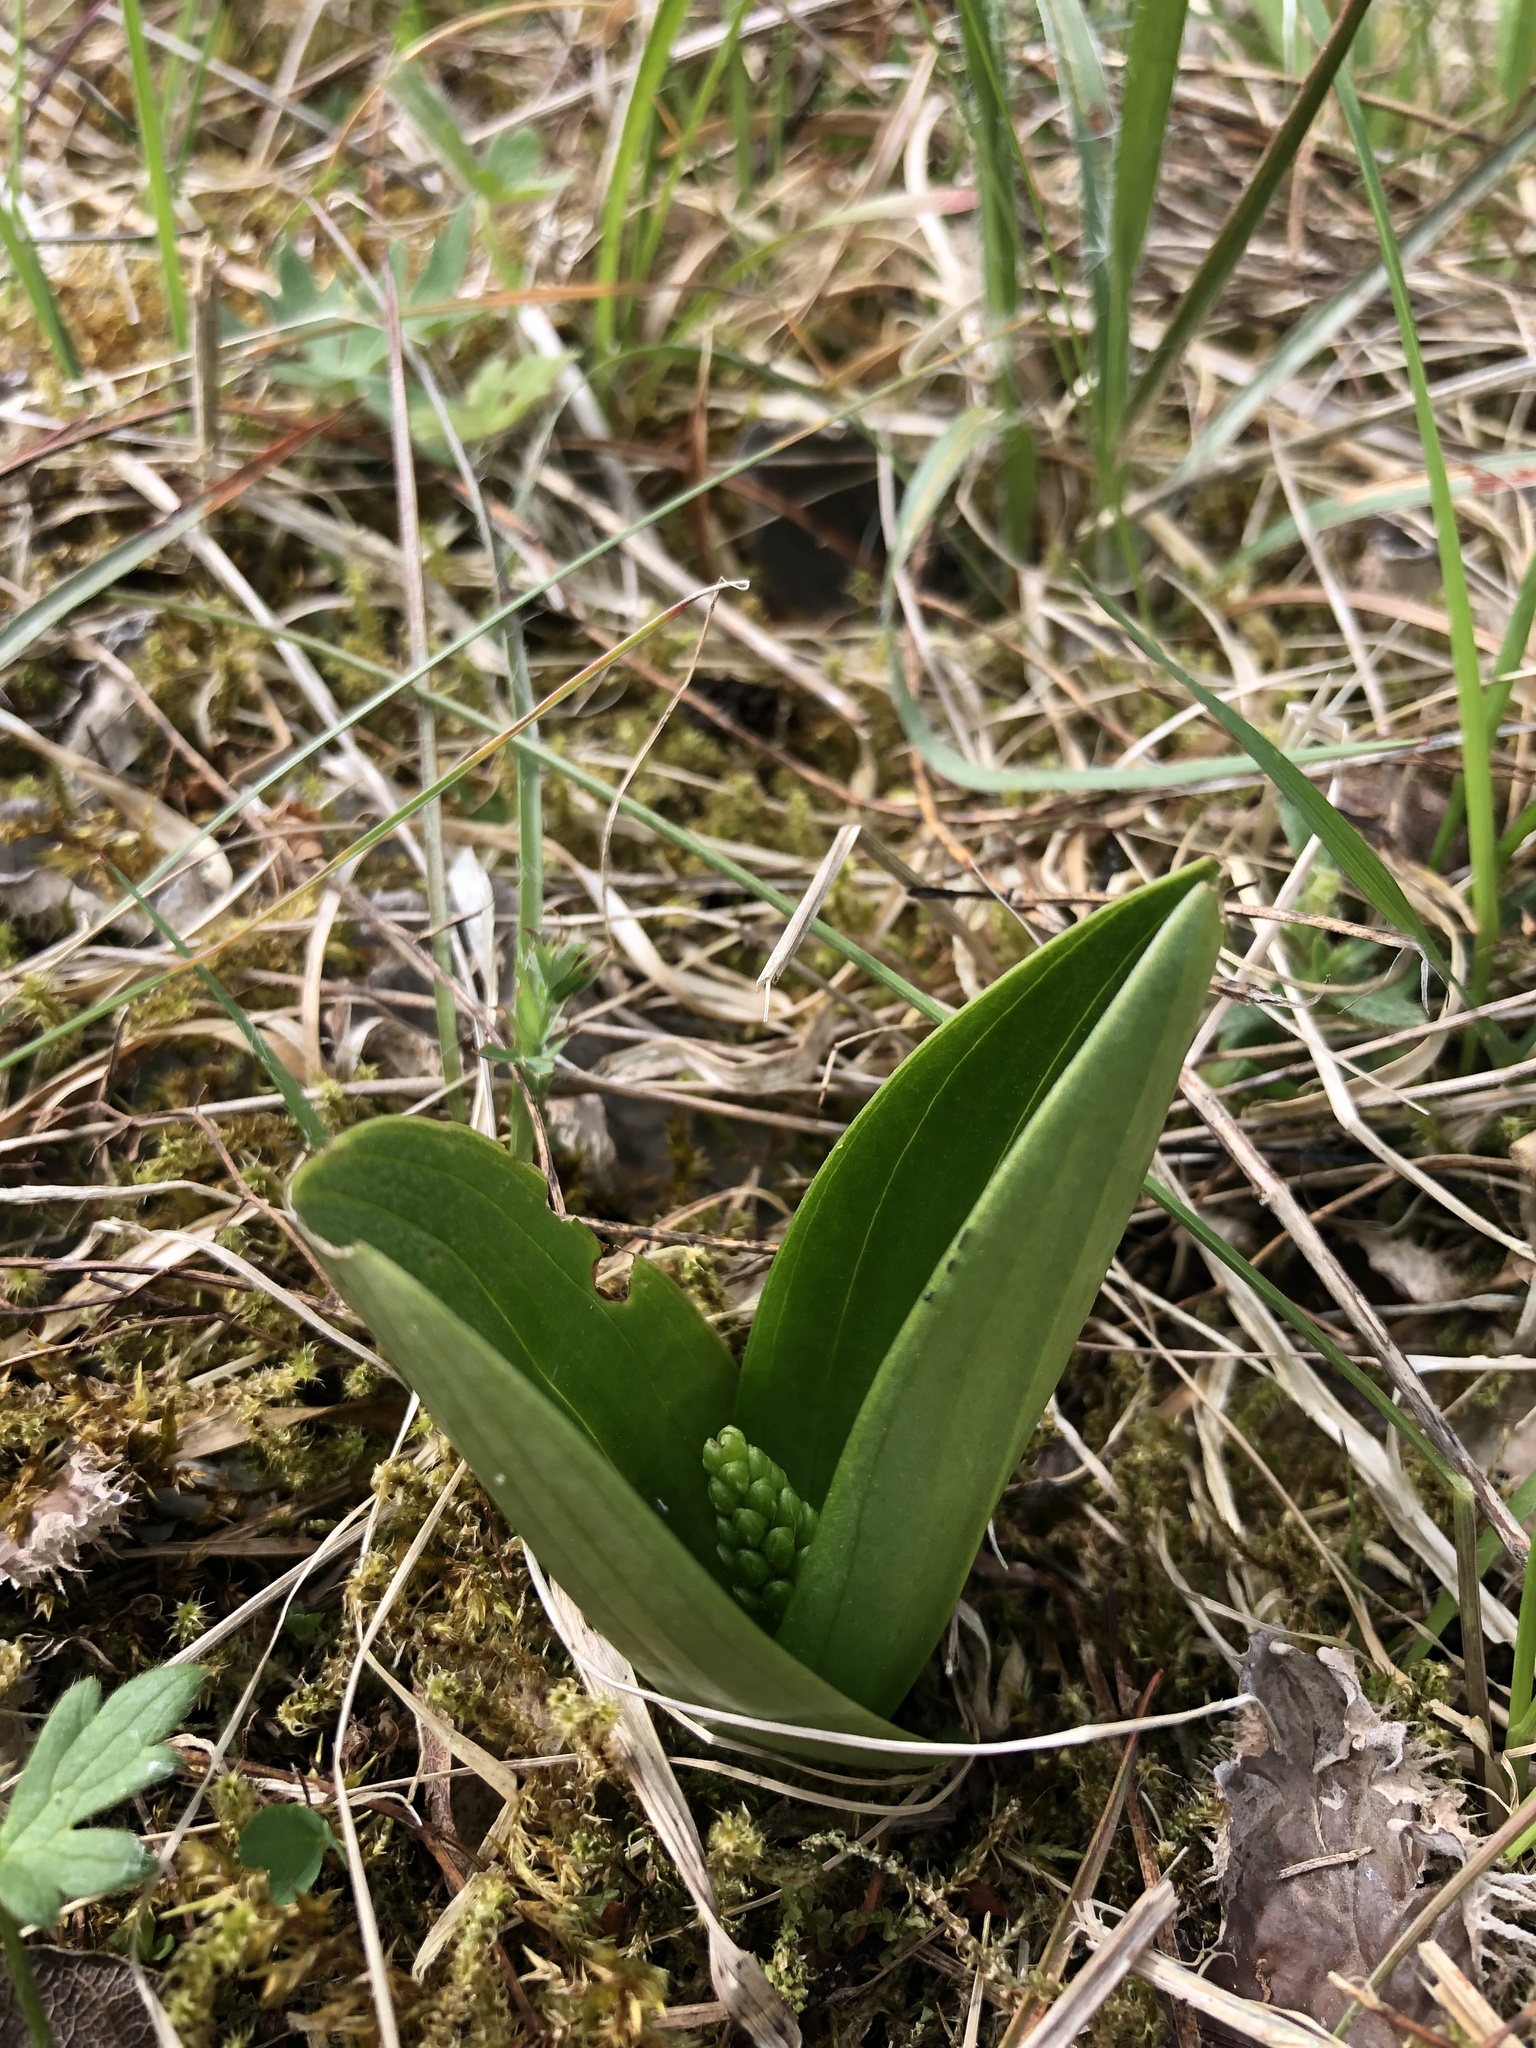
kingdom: Plantae
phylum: Tracheophyta
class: Liliopsida
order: Asparagales
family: Orchidaceae
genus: Neottia
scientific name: Neottia ovata
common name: Common twayblade
